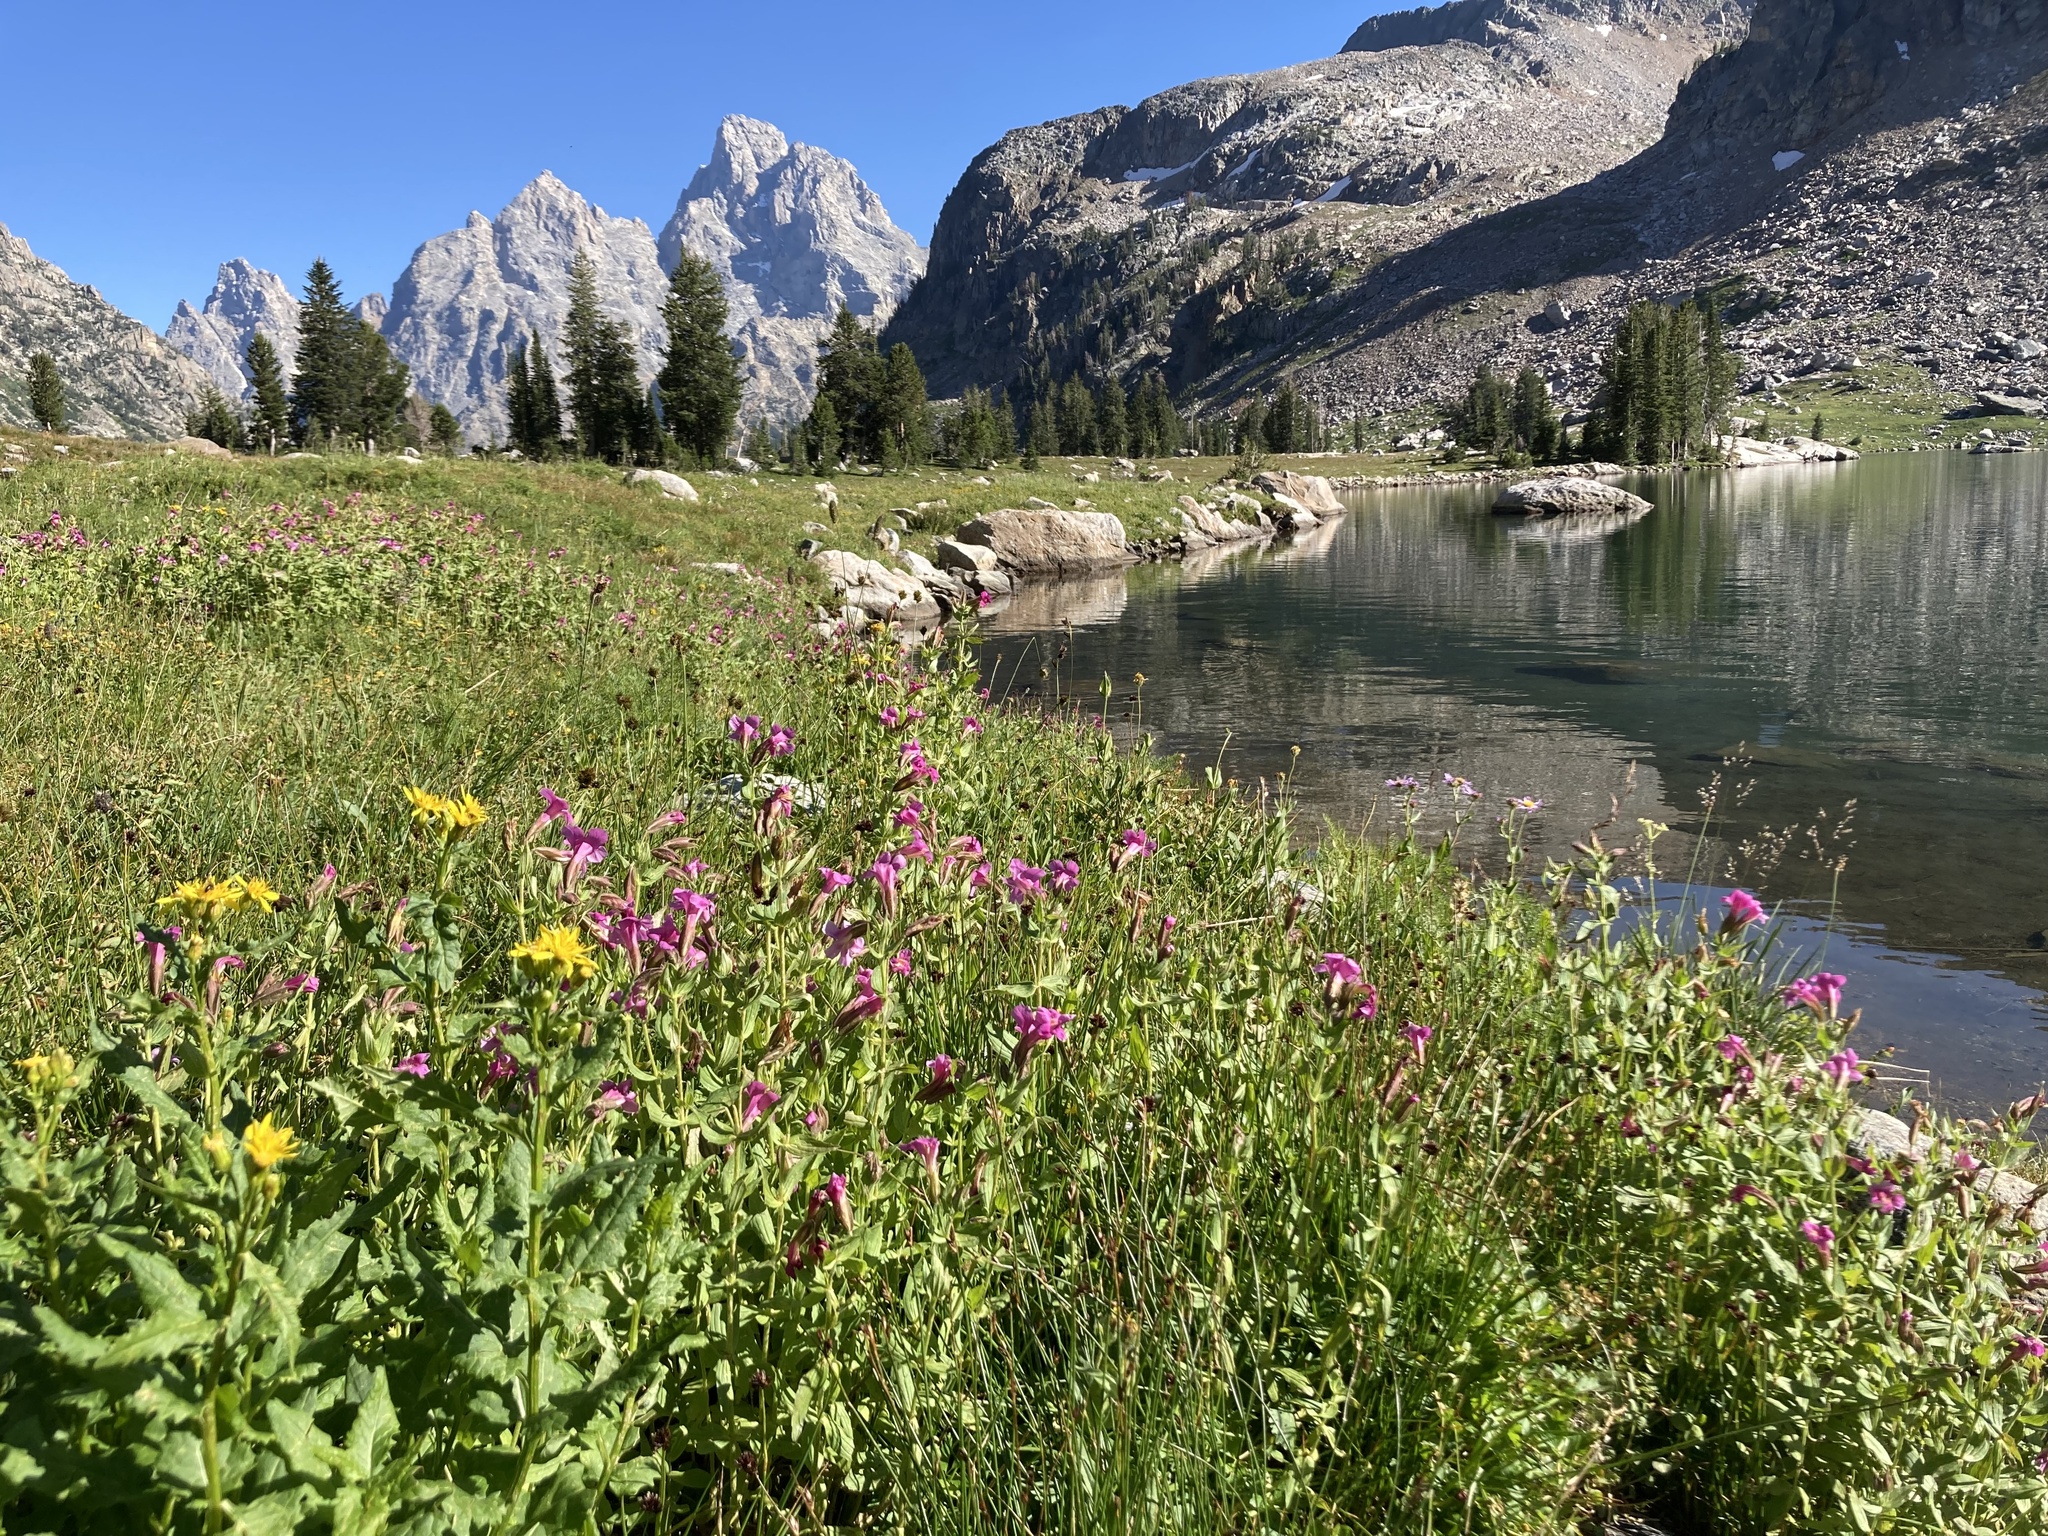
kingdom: Plantae
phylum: Tracheophyta
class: Magnoliopsida
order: Lamiales
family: Phrymaceae
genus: Erythranthe
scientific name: Erythranthe lewisii
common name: Lewis's monkey-flower
